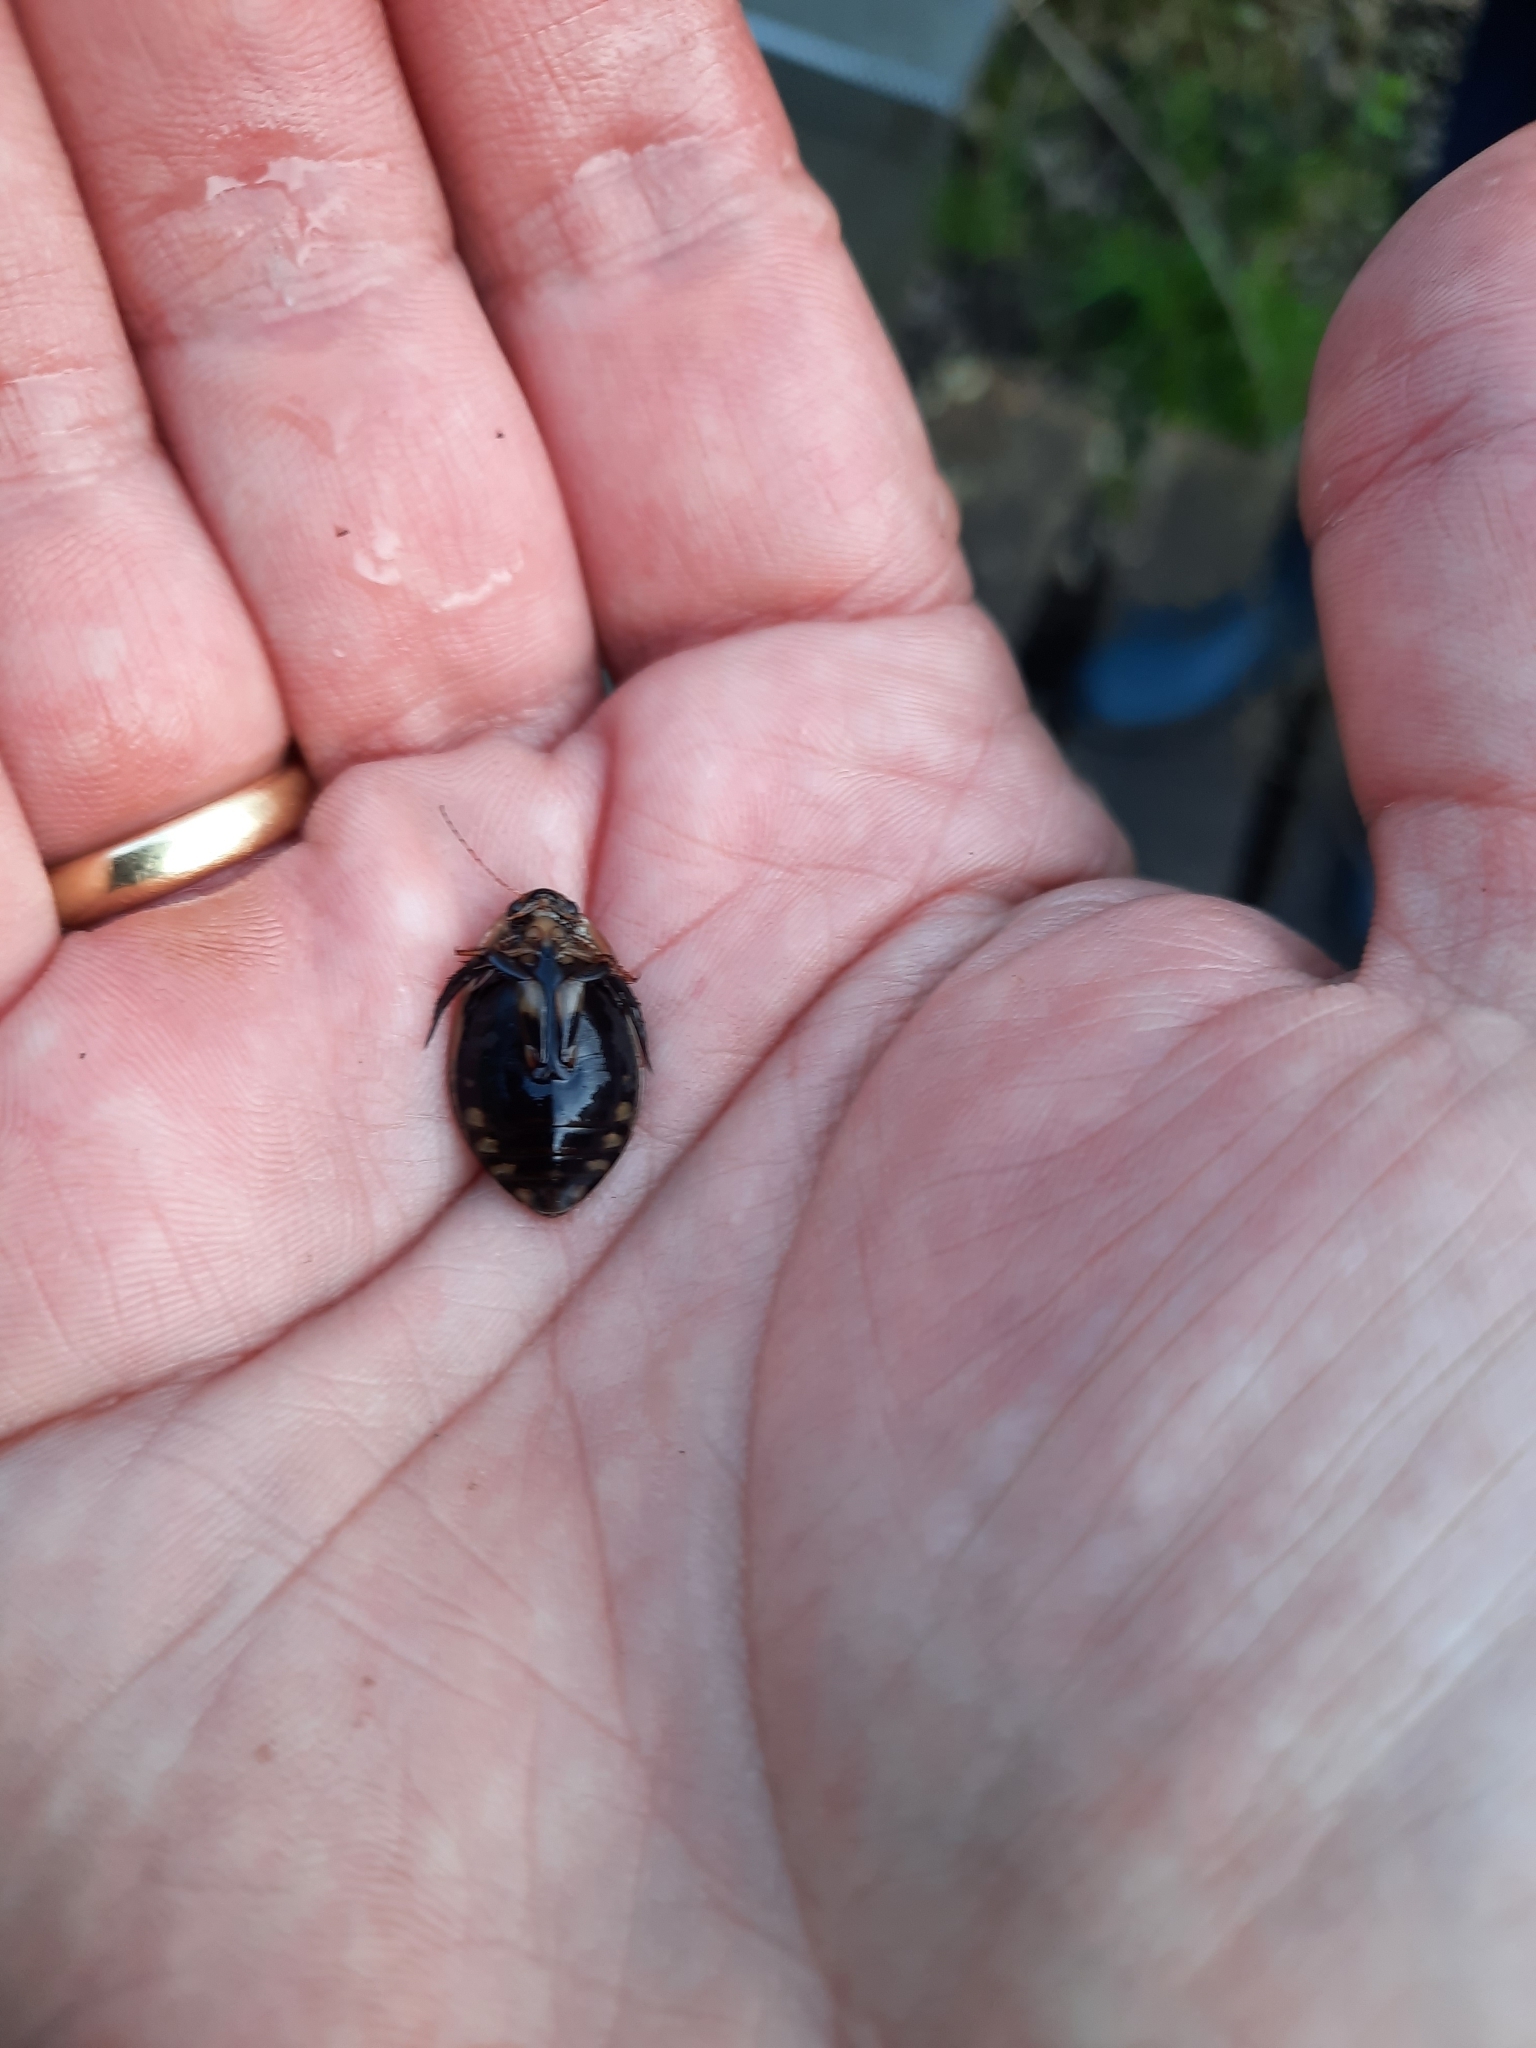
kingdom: Animalia
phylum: Arthropoda
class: Insecta
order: Coleoptera
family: Dytiscidae
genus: Acilius
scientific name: Acilius sulcatus
